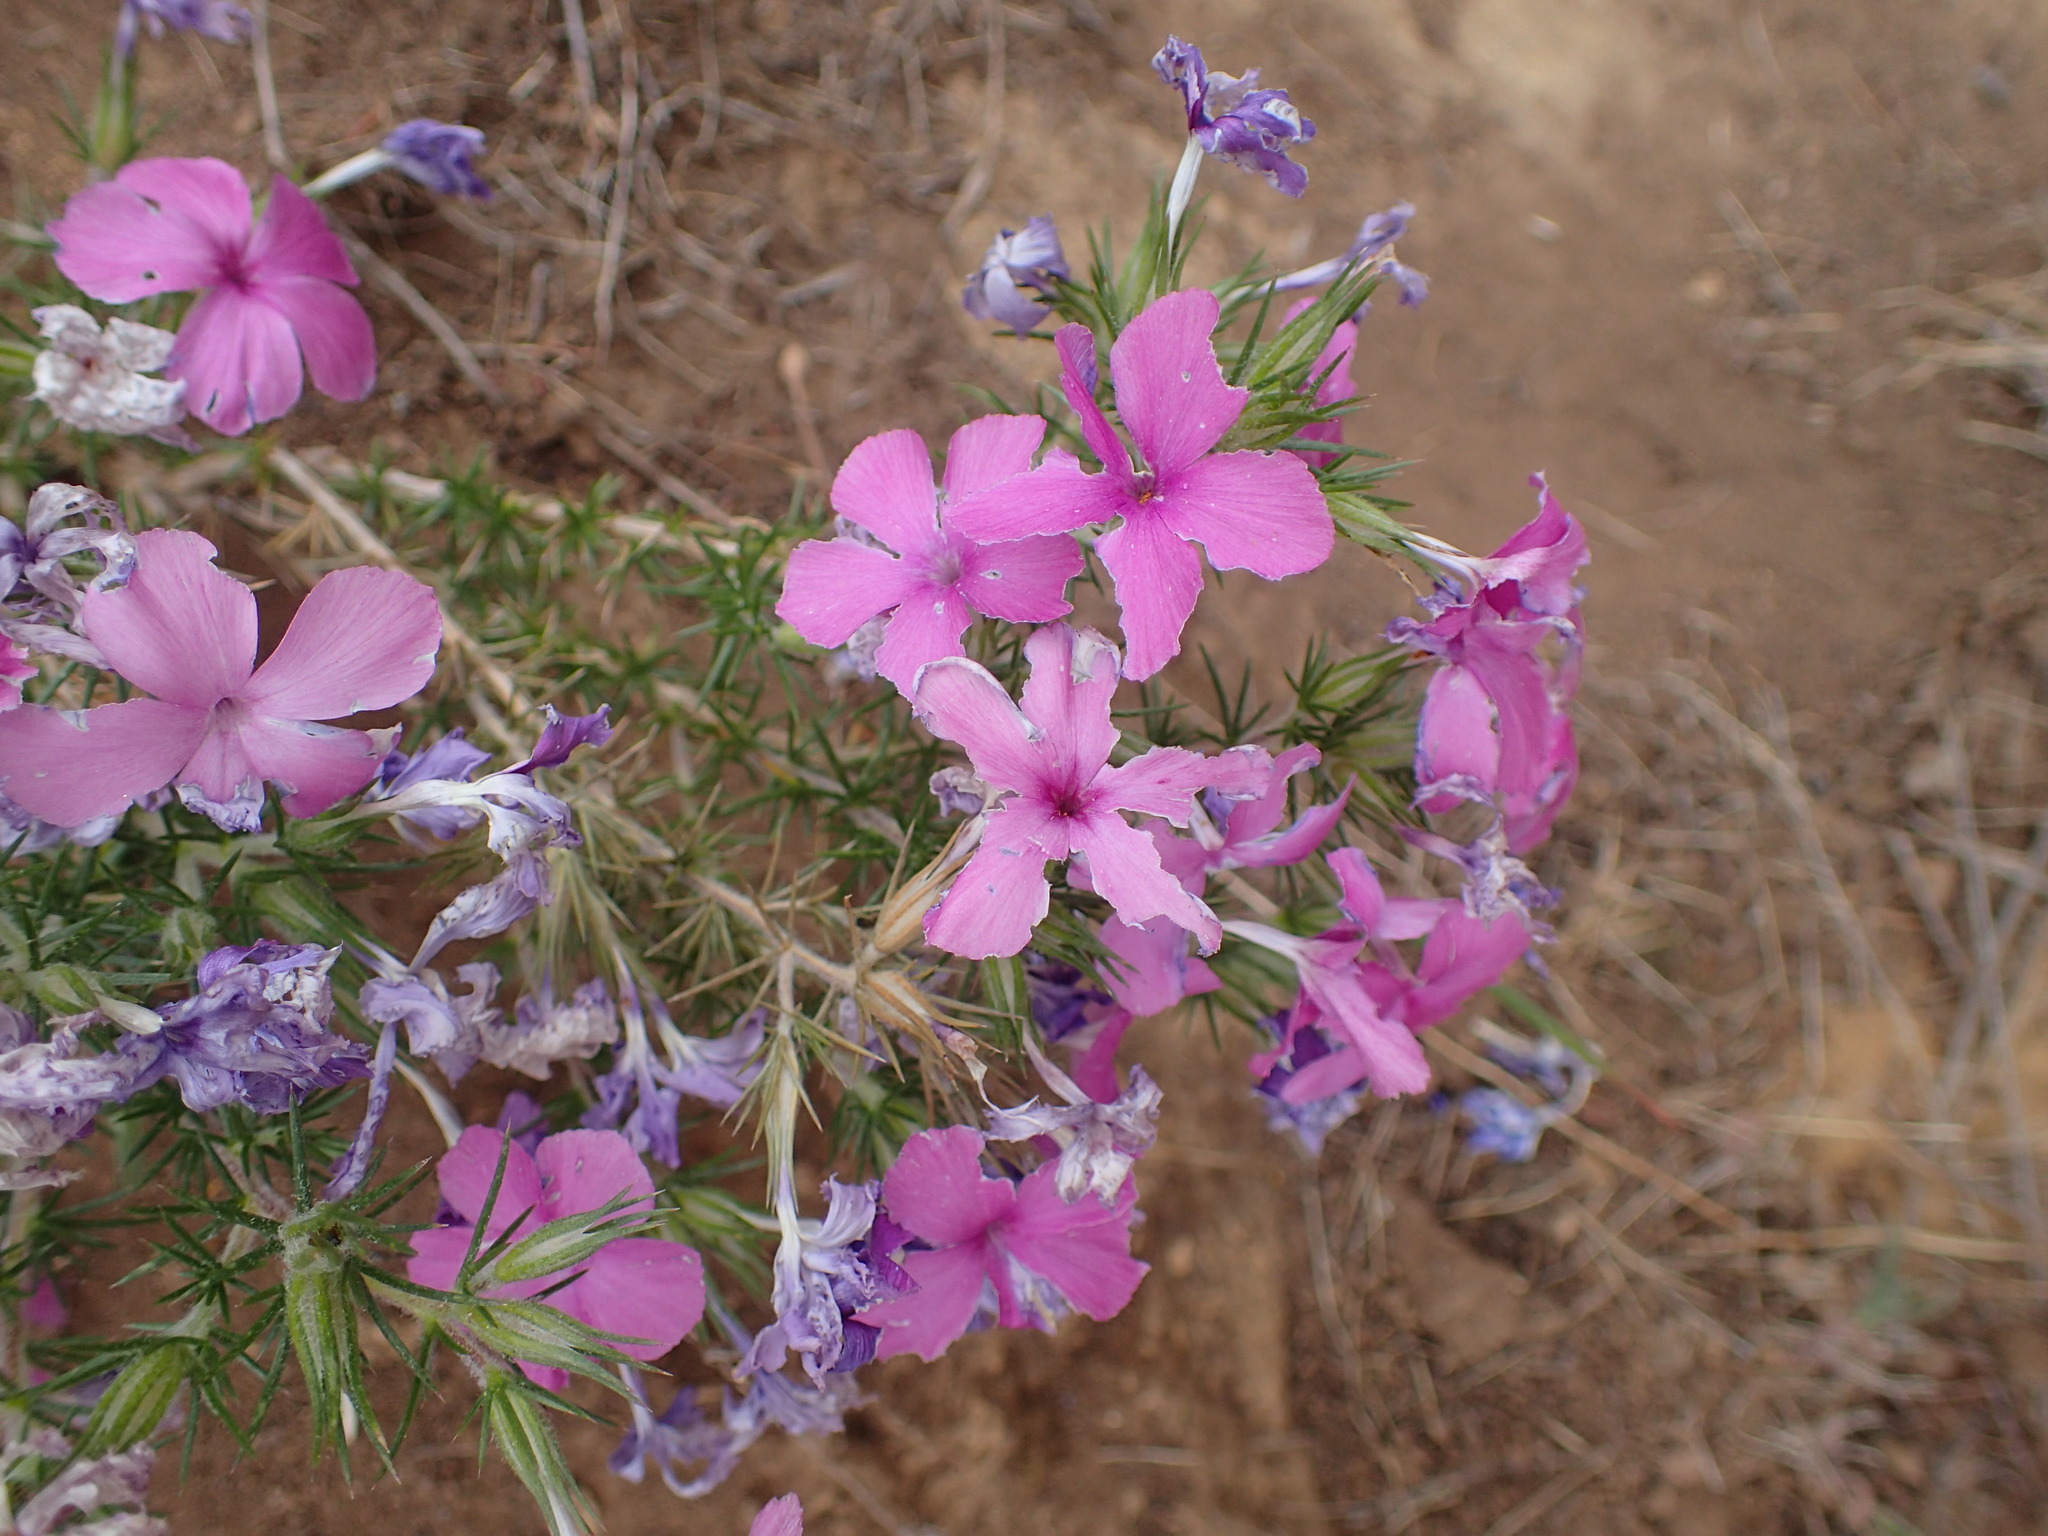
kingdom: Plantae
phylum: Tracheophyta
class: Magnoliopsida
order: Ericales
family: Polemoniaceae
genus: Linanthus
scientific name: Linanthus californicus
